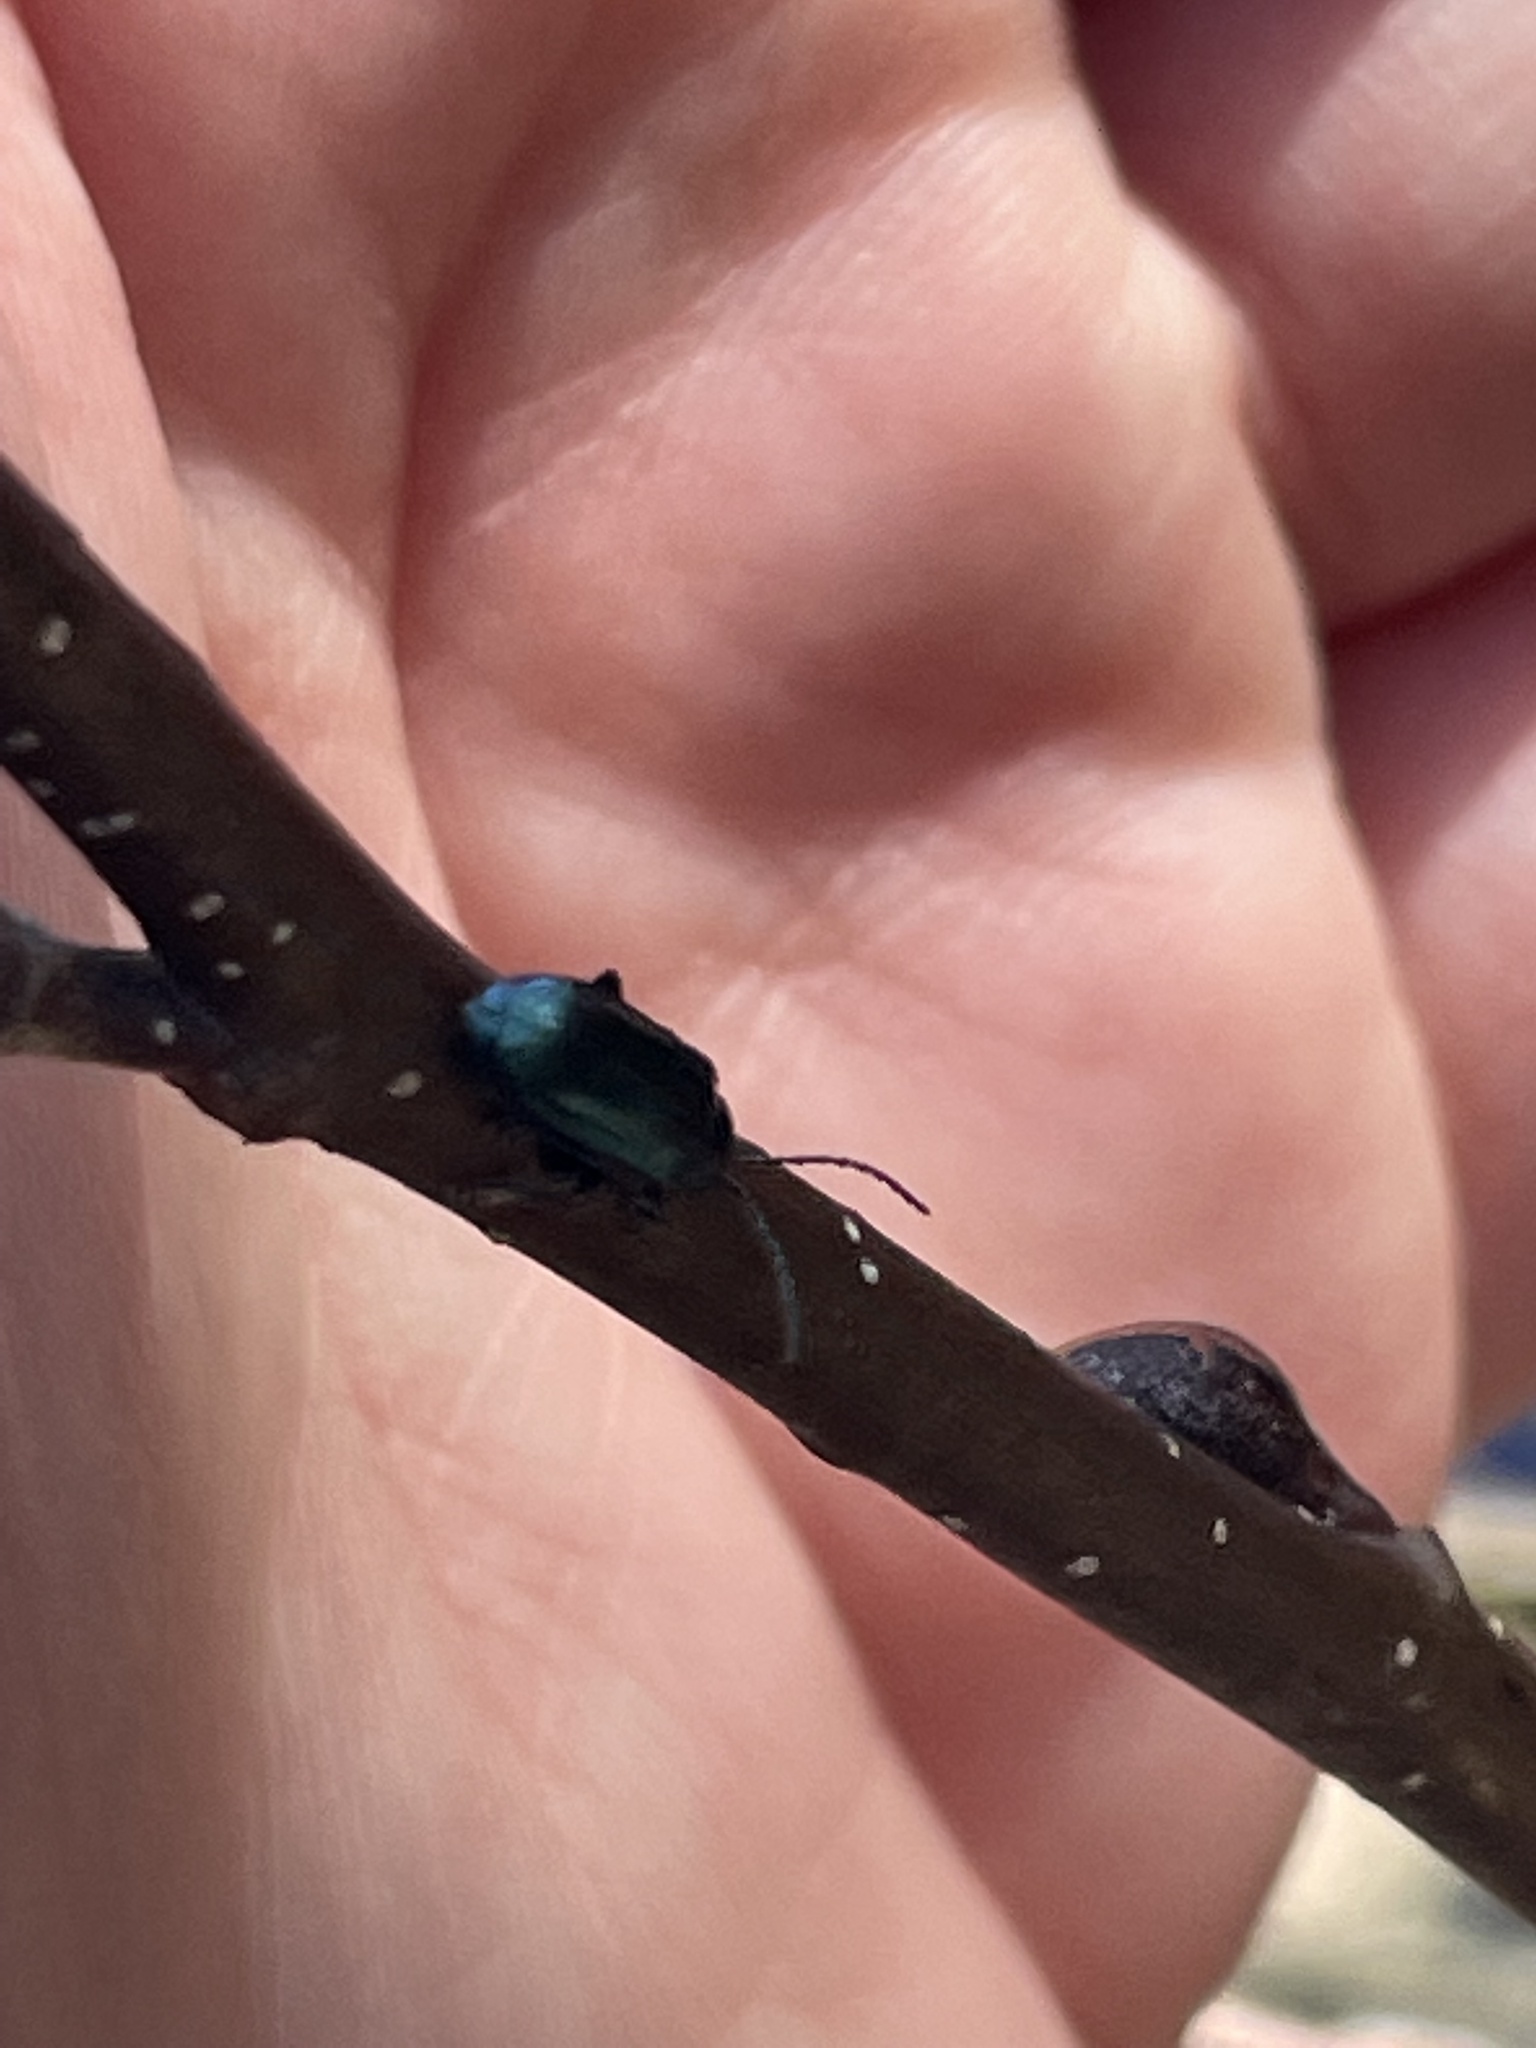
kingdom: Animalia
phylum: Arthropoda
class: Insecta
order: Coleoptera
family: Chrysomelidae
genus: Altica
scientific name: Altica ambiens
